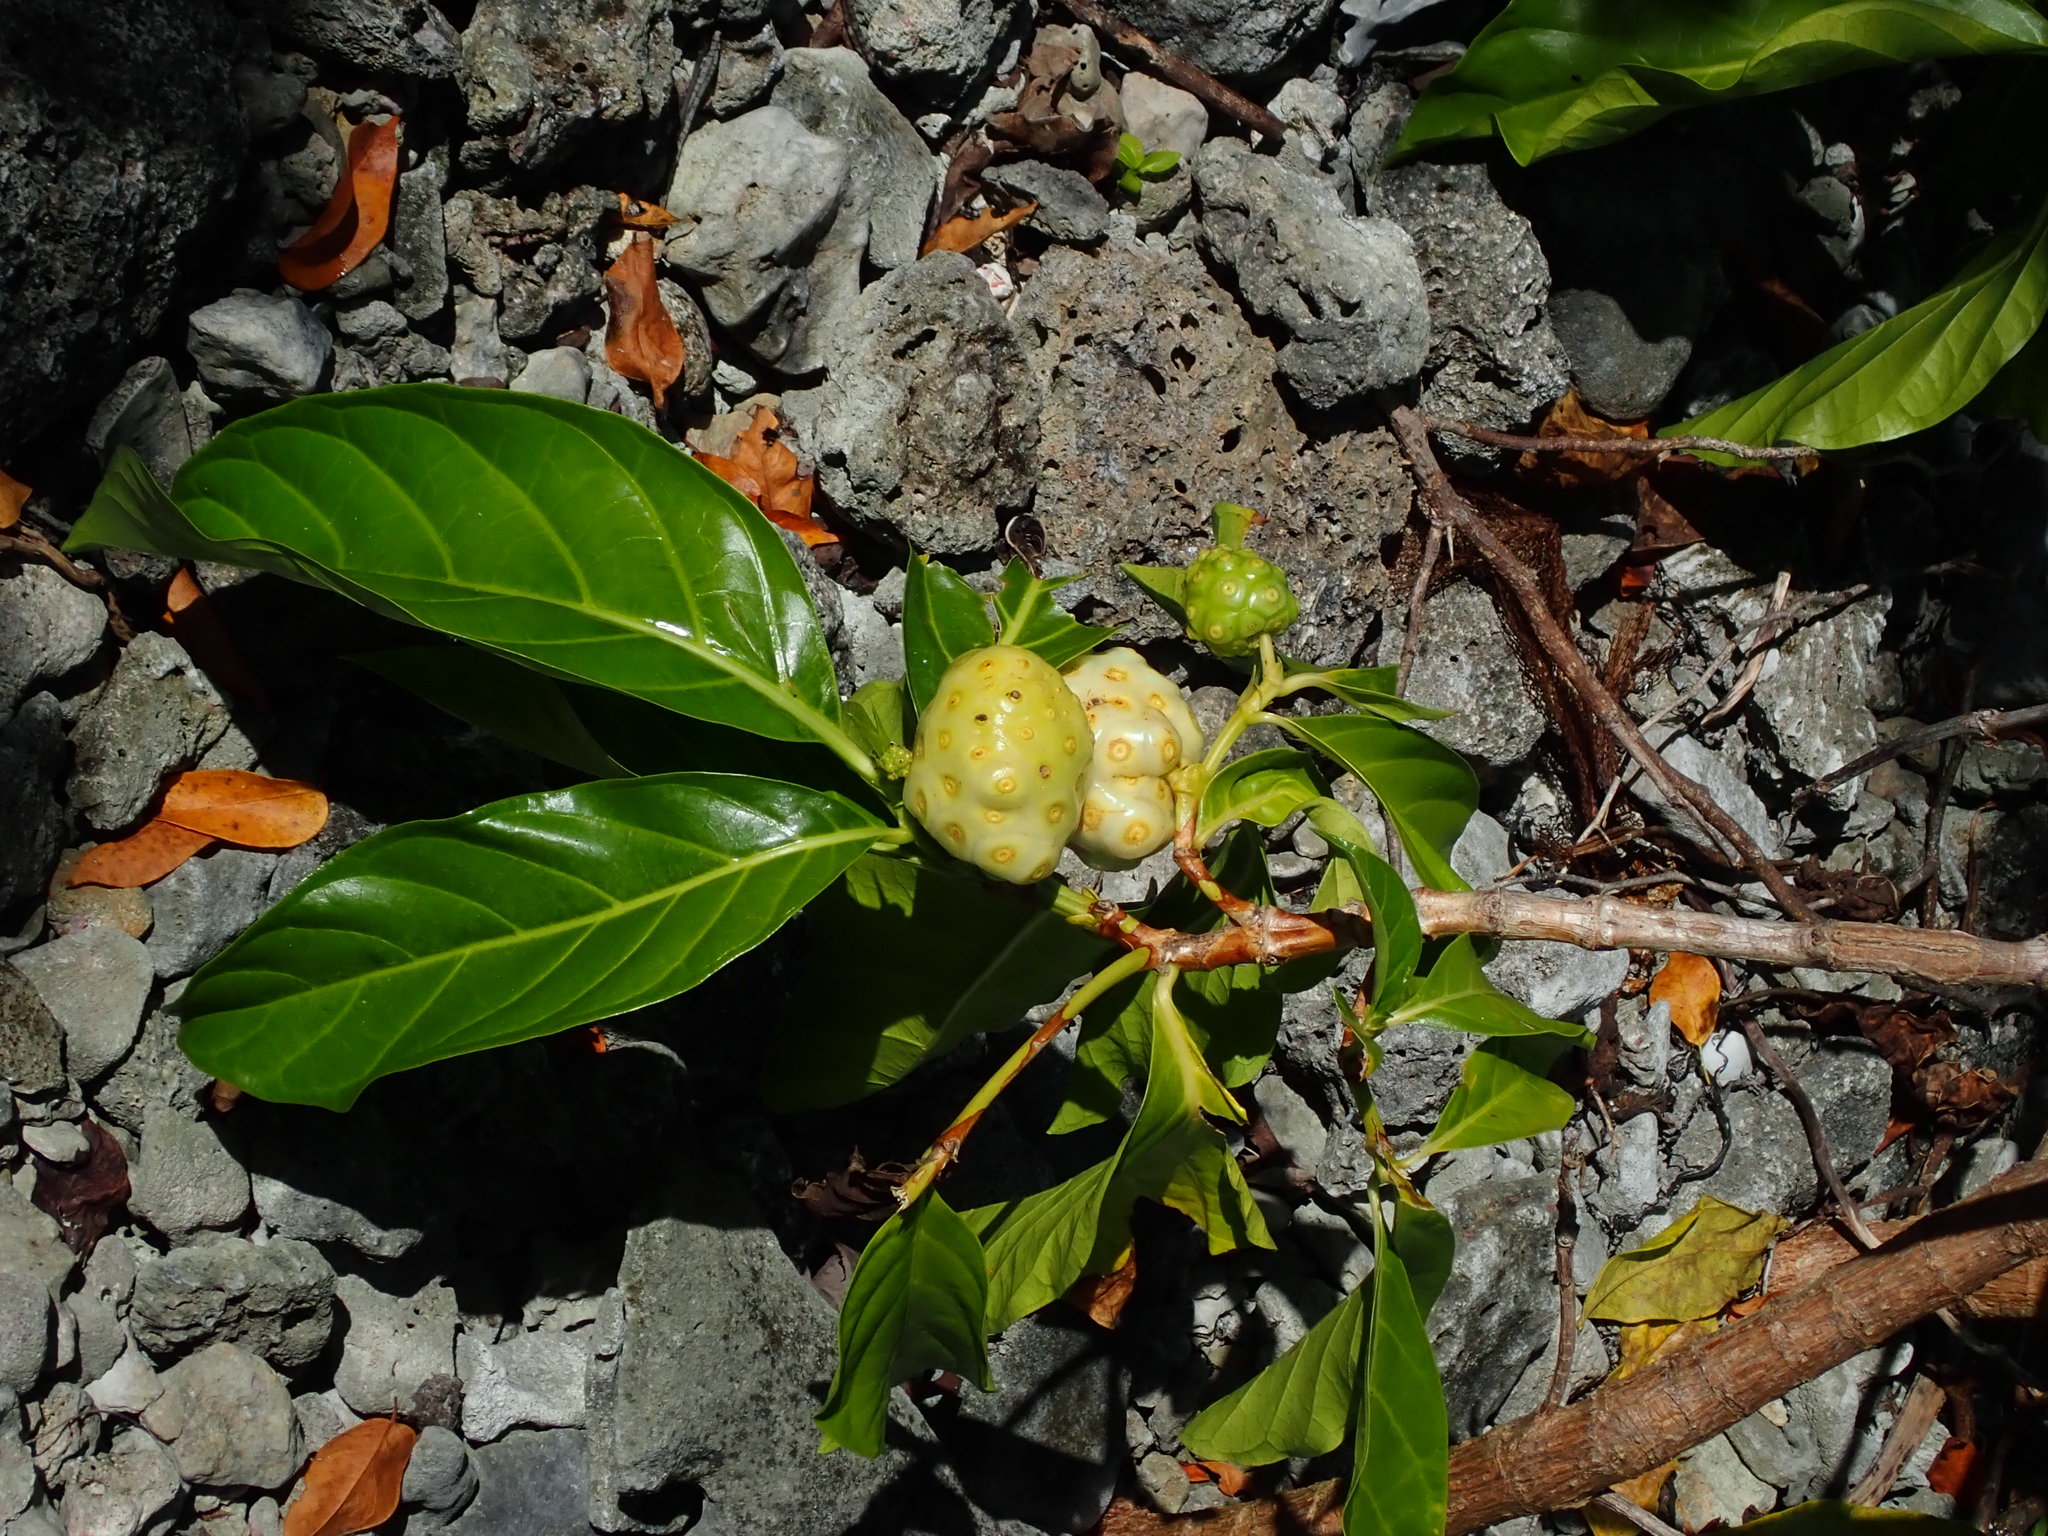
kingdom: Plantae
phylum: Tracheophyta
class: Magnoliopsida
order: Gentianales
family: Rubiaceae
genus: Morinda
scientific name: Morinda citrifolia
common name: Indian-mulberry
